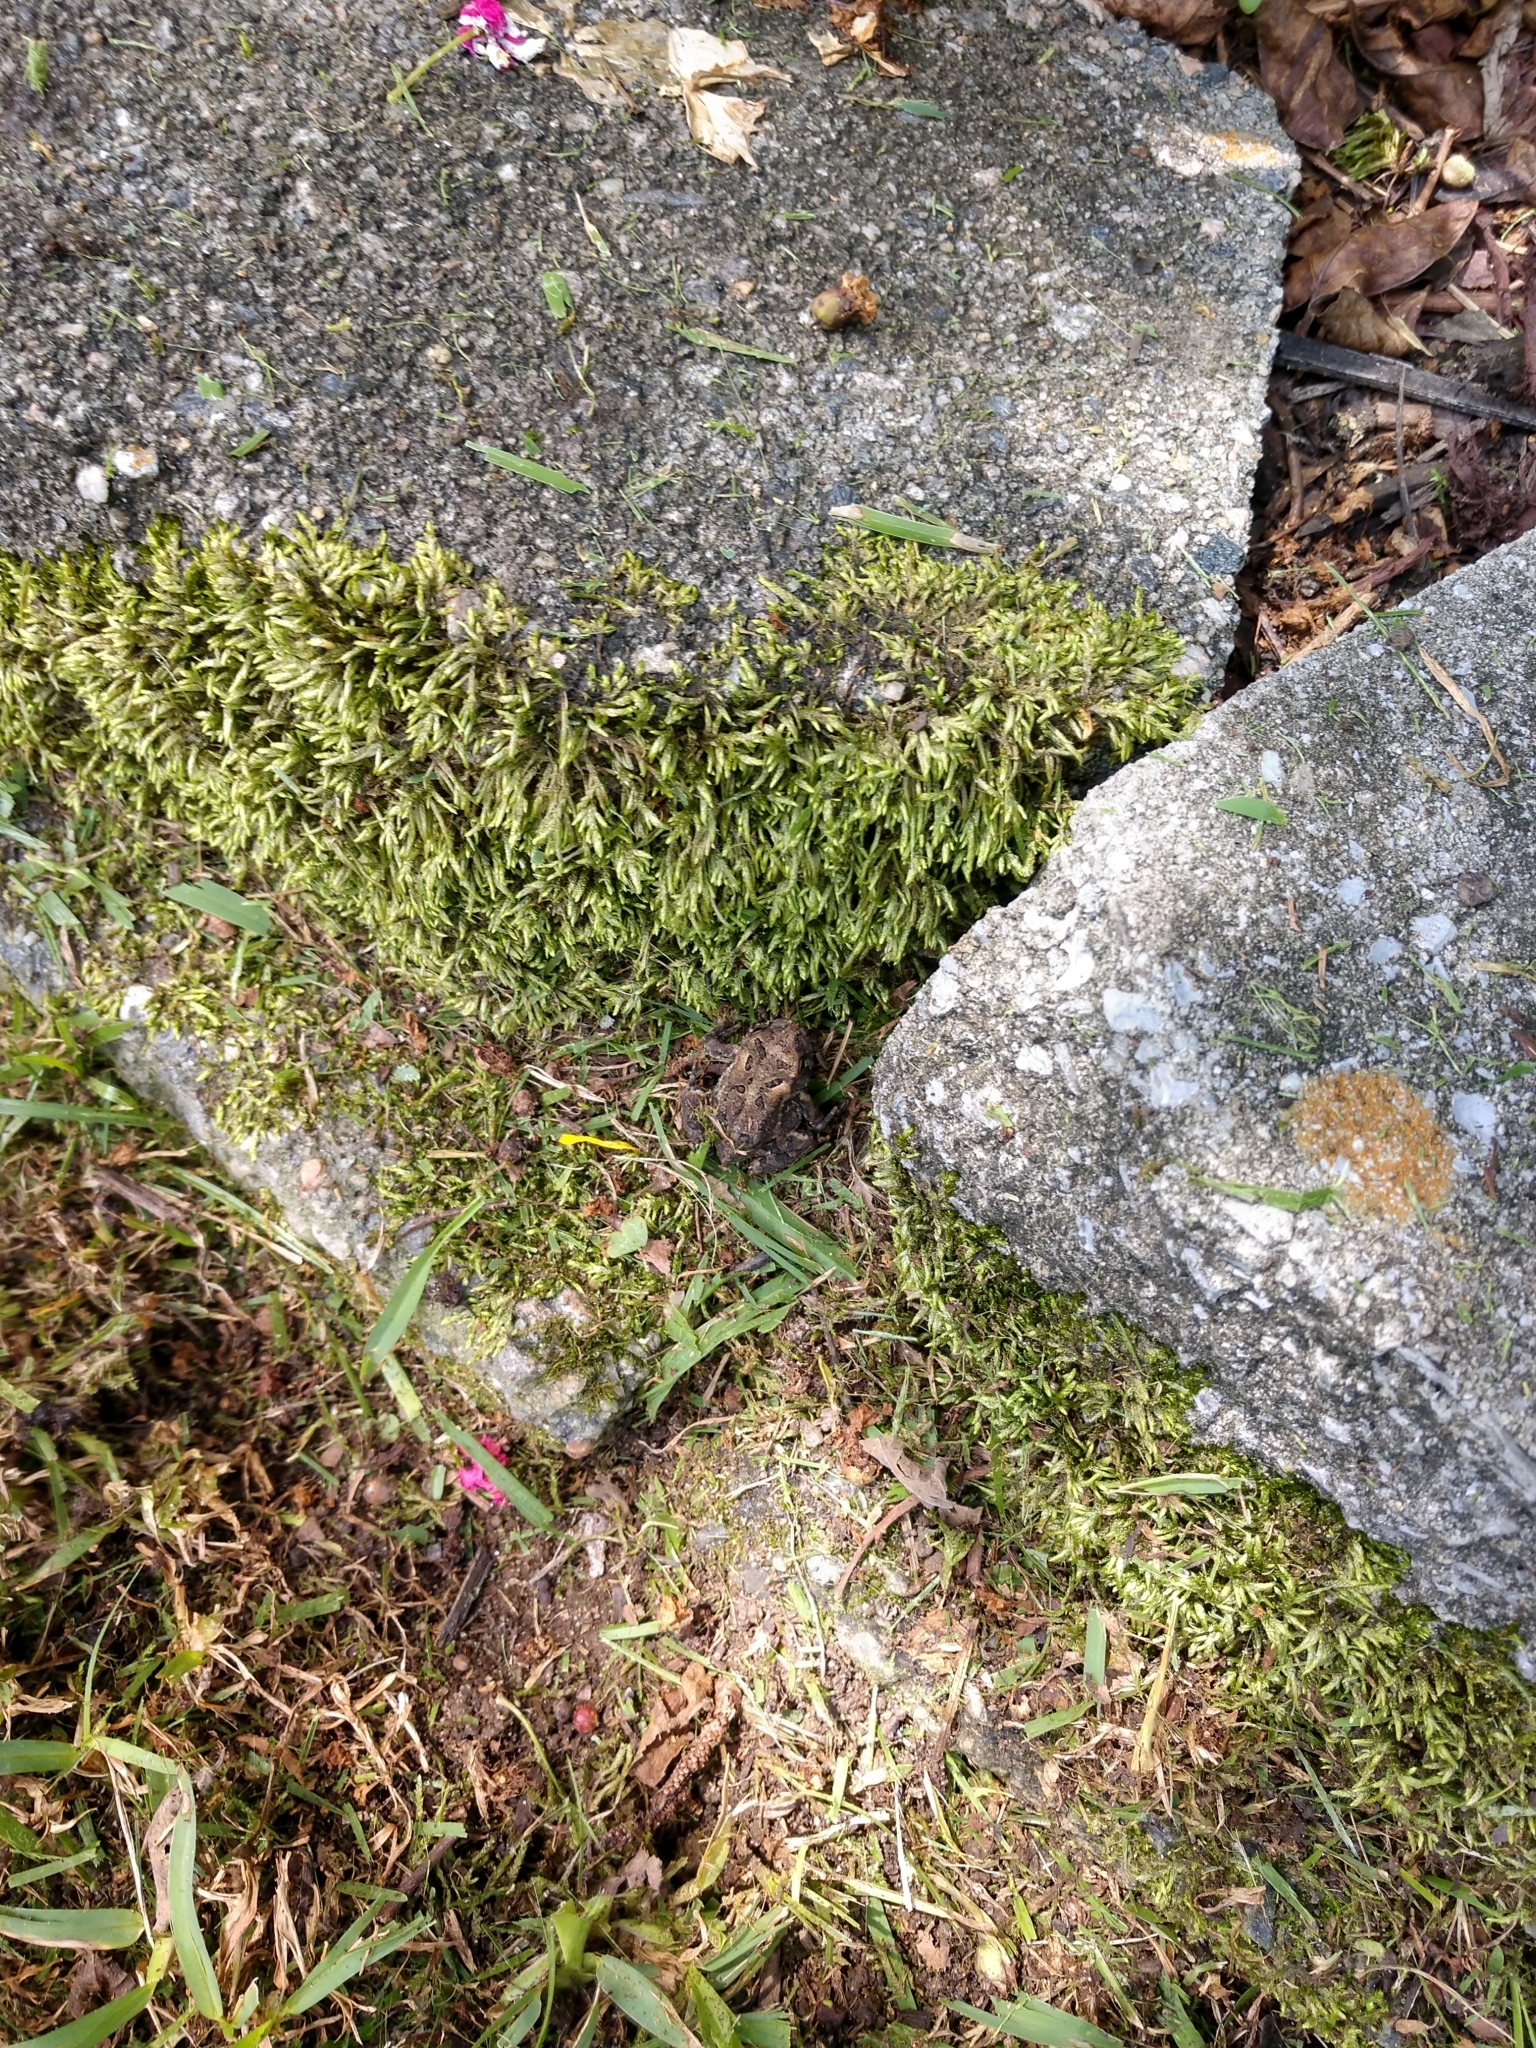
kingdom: Animalia
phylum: Chordata
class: Amphibia
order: Anura
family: Bufonidae
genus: Anaxyrus
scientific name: Anaxyrus terrestris
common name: Southern toad
